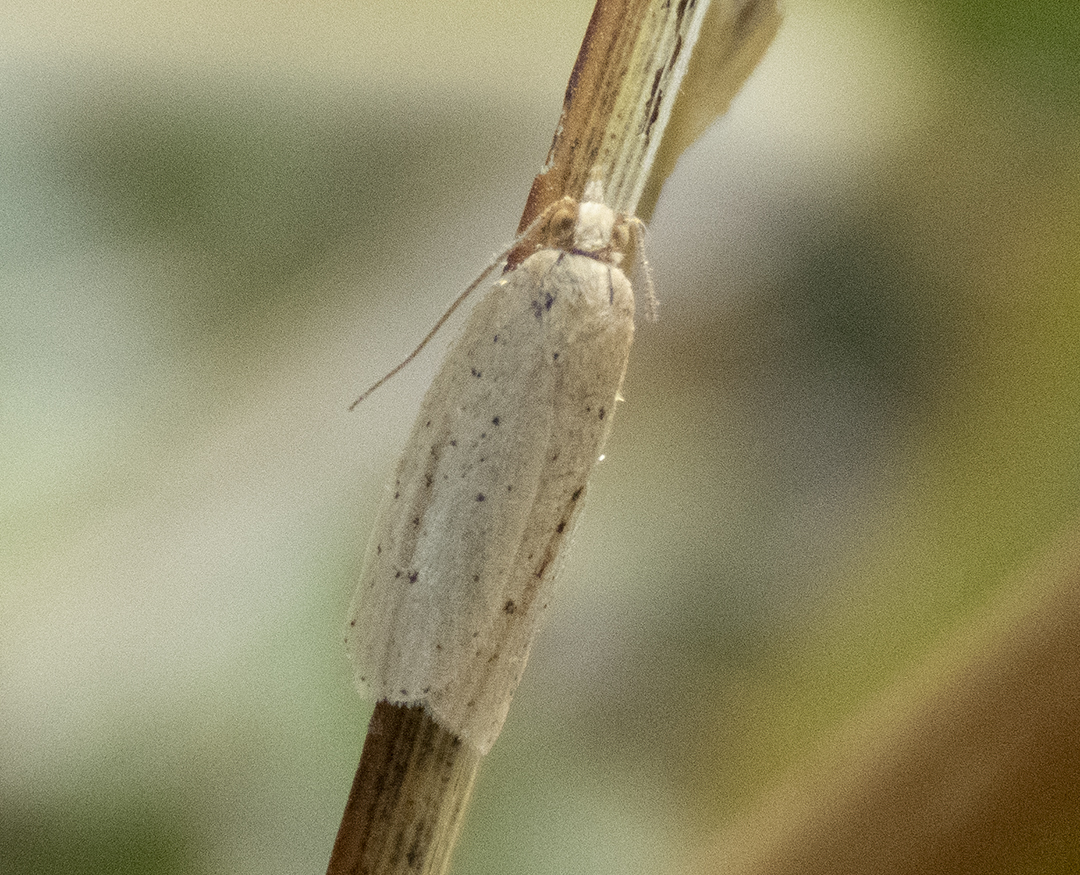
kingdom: Animalia
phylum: Arthropoda
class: Insecta
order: Lepidoptera
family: Tortricidae
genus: Clepsis
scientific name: Clepsis
